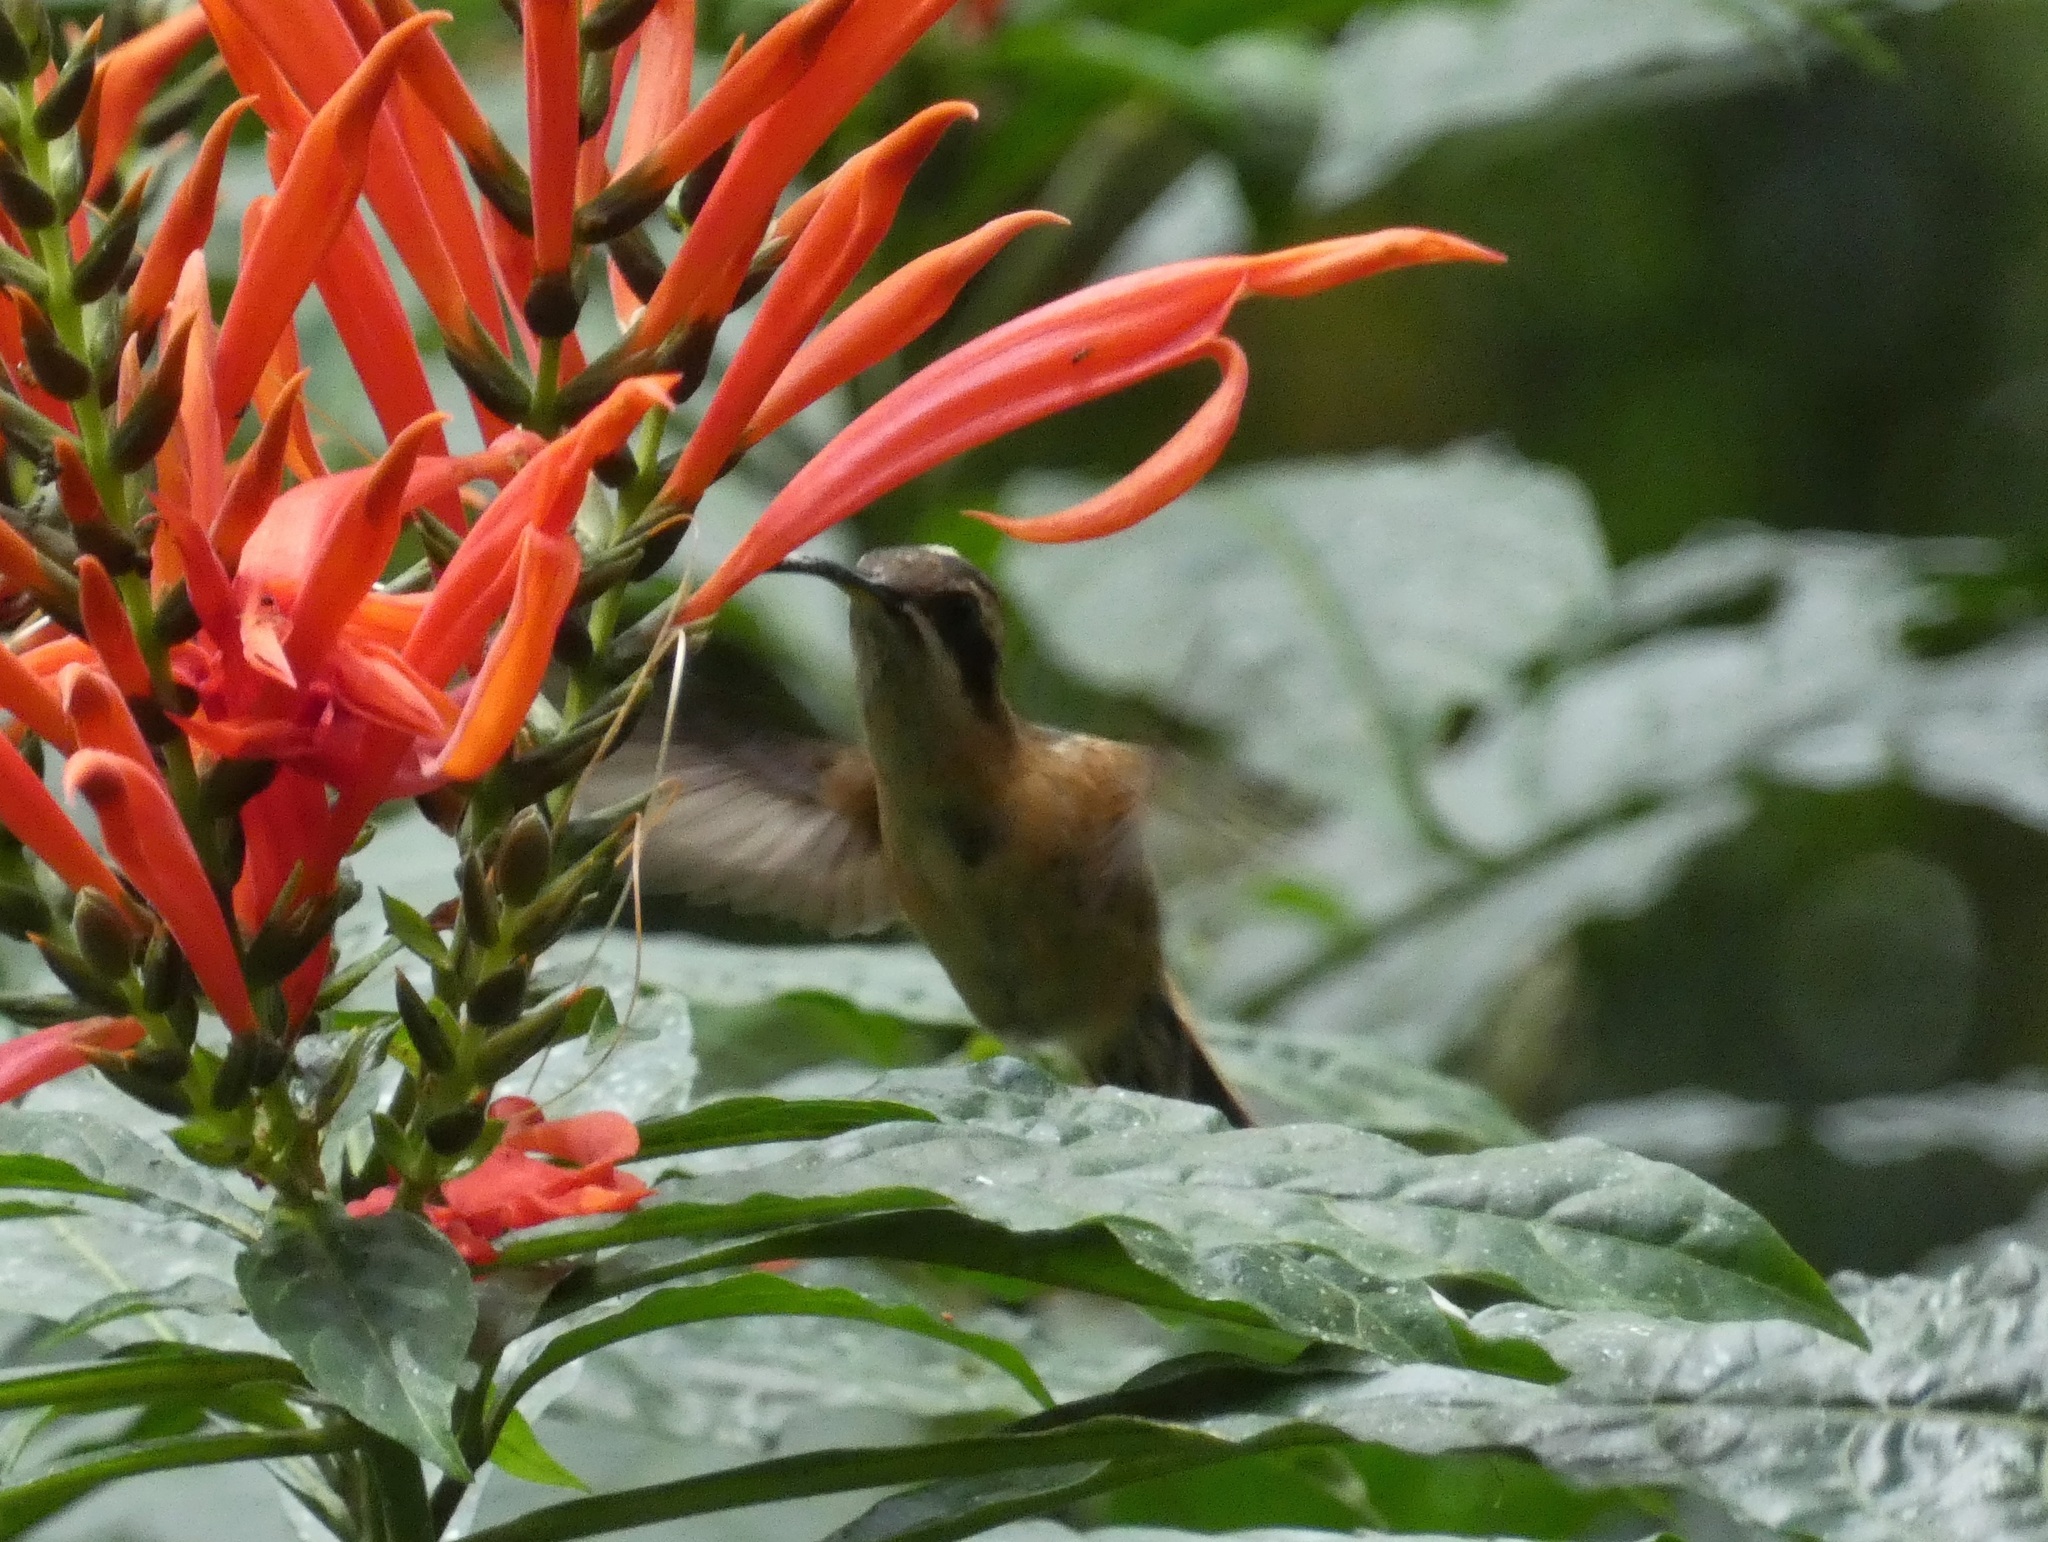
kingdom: Animalia
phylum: Chordata
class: Aves
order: Apodiformes
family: Trochilidae
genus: Phaethornis
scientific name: Phaethornis striigularis
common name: Stripe-throated hermit
